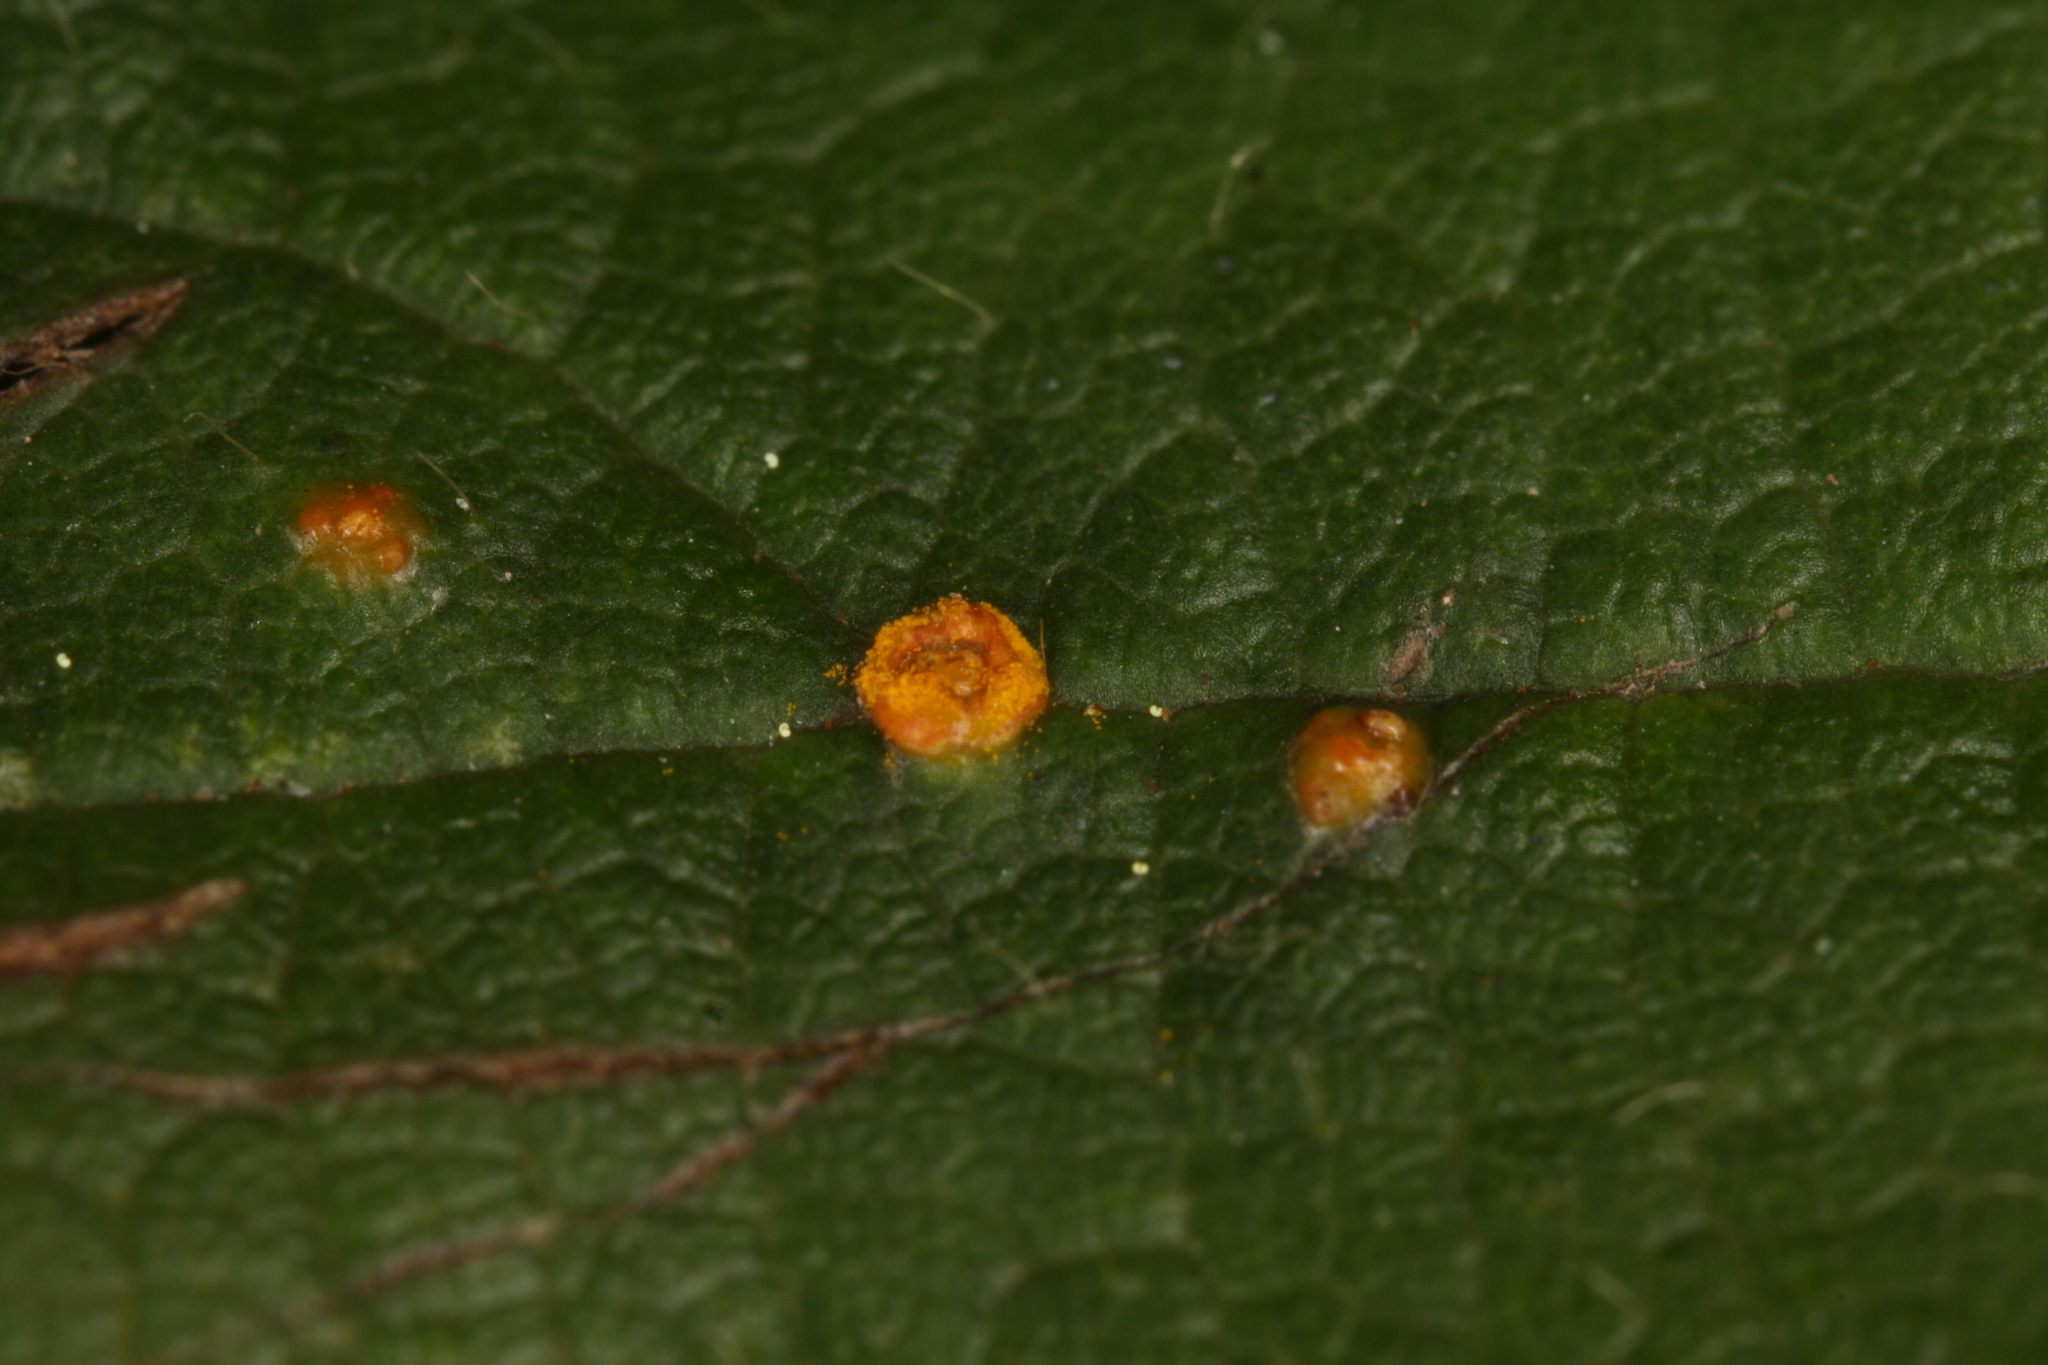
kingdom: Fungi
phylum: Basidiomycota
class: Pucciniomycetes
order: Pucciniales
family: Phragmidiaceae
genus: Kuehneola
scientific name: Kuehneola uredinis
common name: Bramble stem rust
